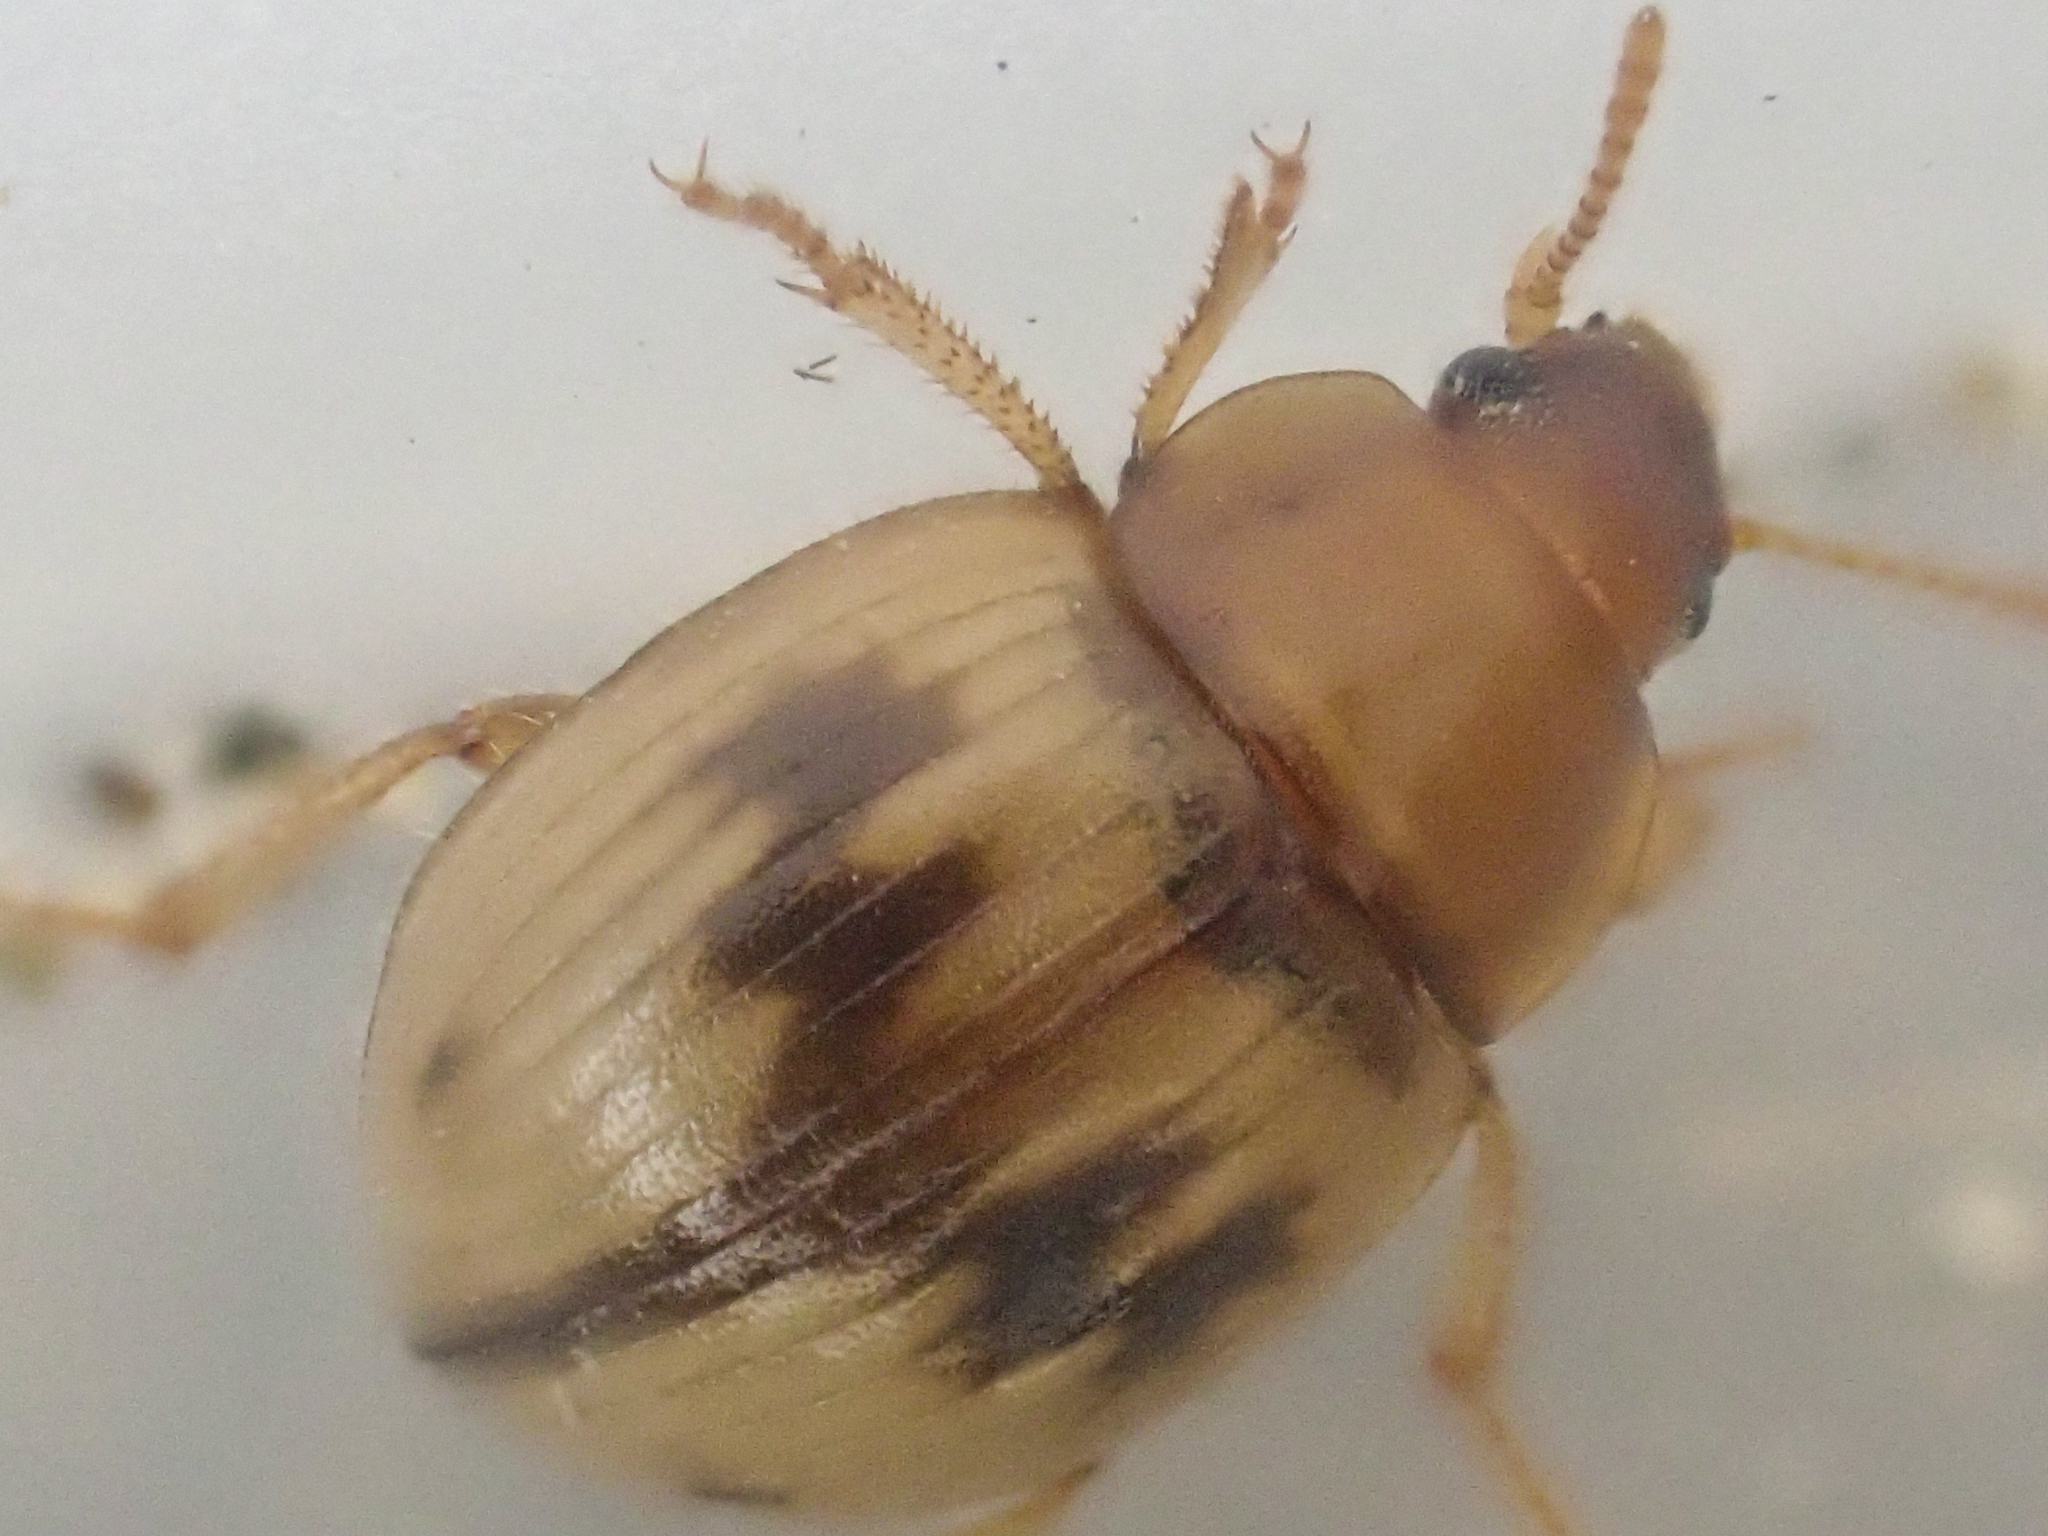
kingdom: Animalia
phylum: Arthropoda
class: Insecta
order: Coleoptera
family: Tenebrionidae
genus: Phaleromela
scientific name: Phaleromela picta
